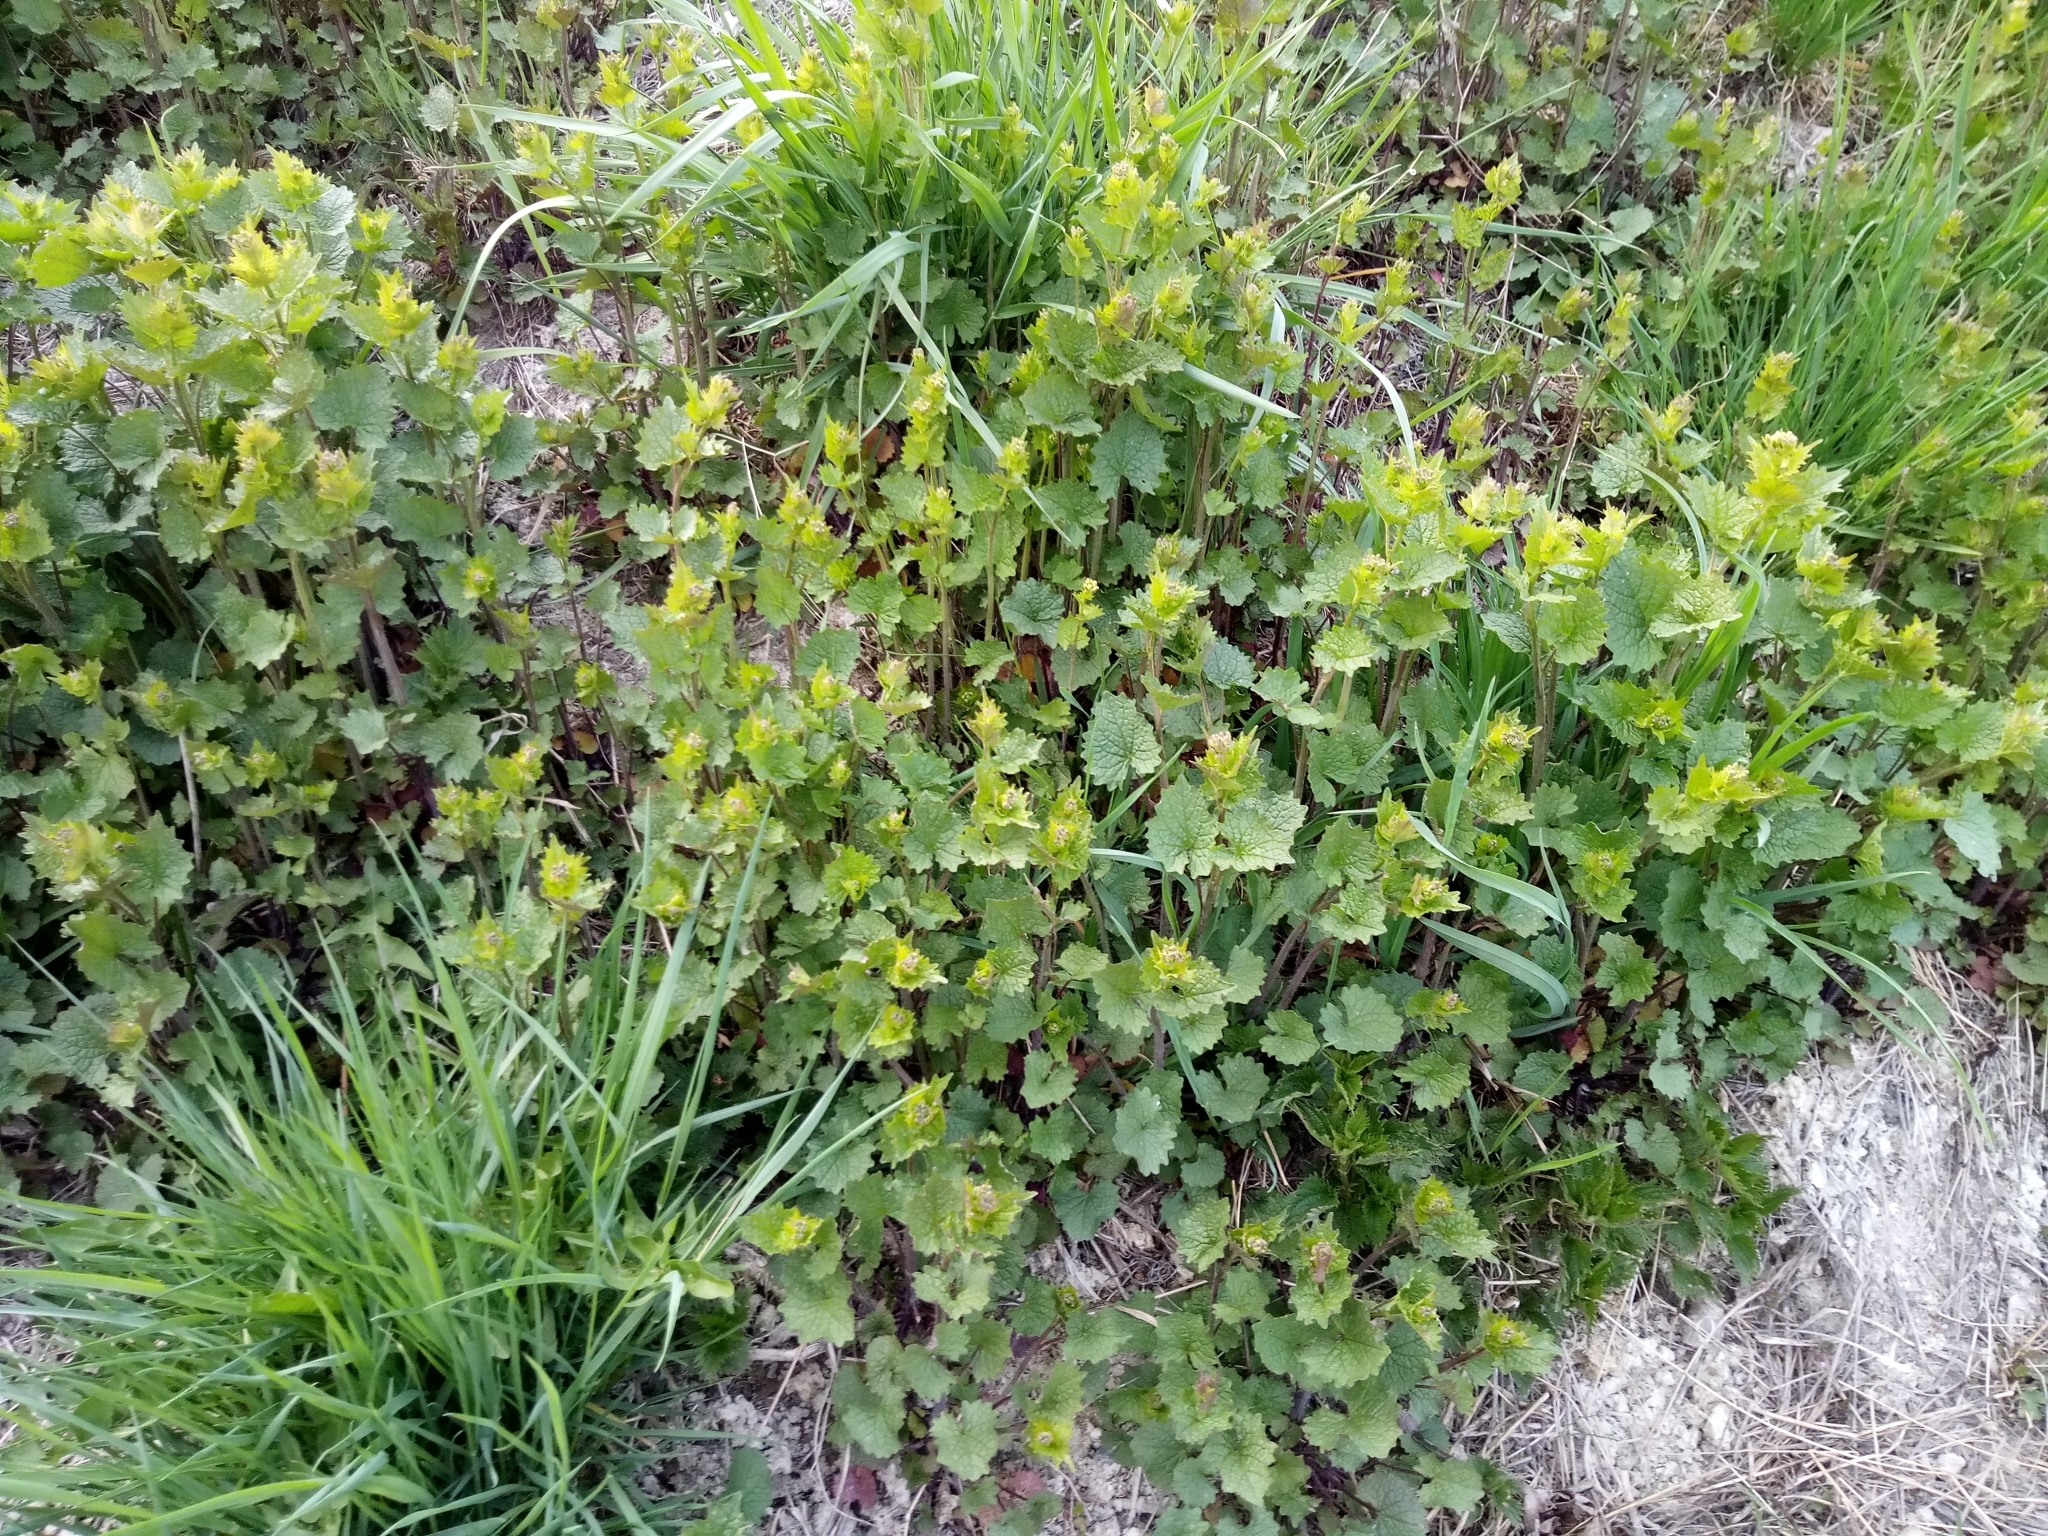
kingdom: Plantae
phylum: Tracheophyta
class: Magnoliopsida
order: Brassicales
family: Brassicaceae
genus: Alliaria
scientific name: Alliaria petiolata
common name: Garlic mustard
